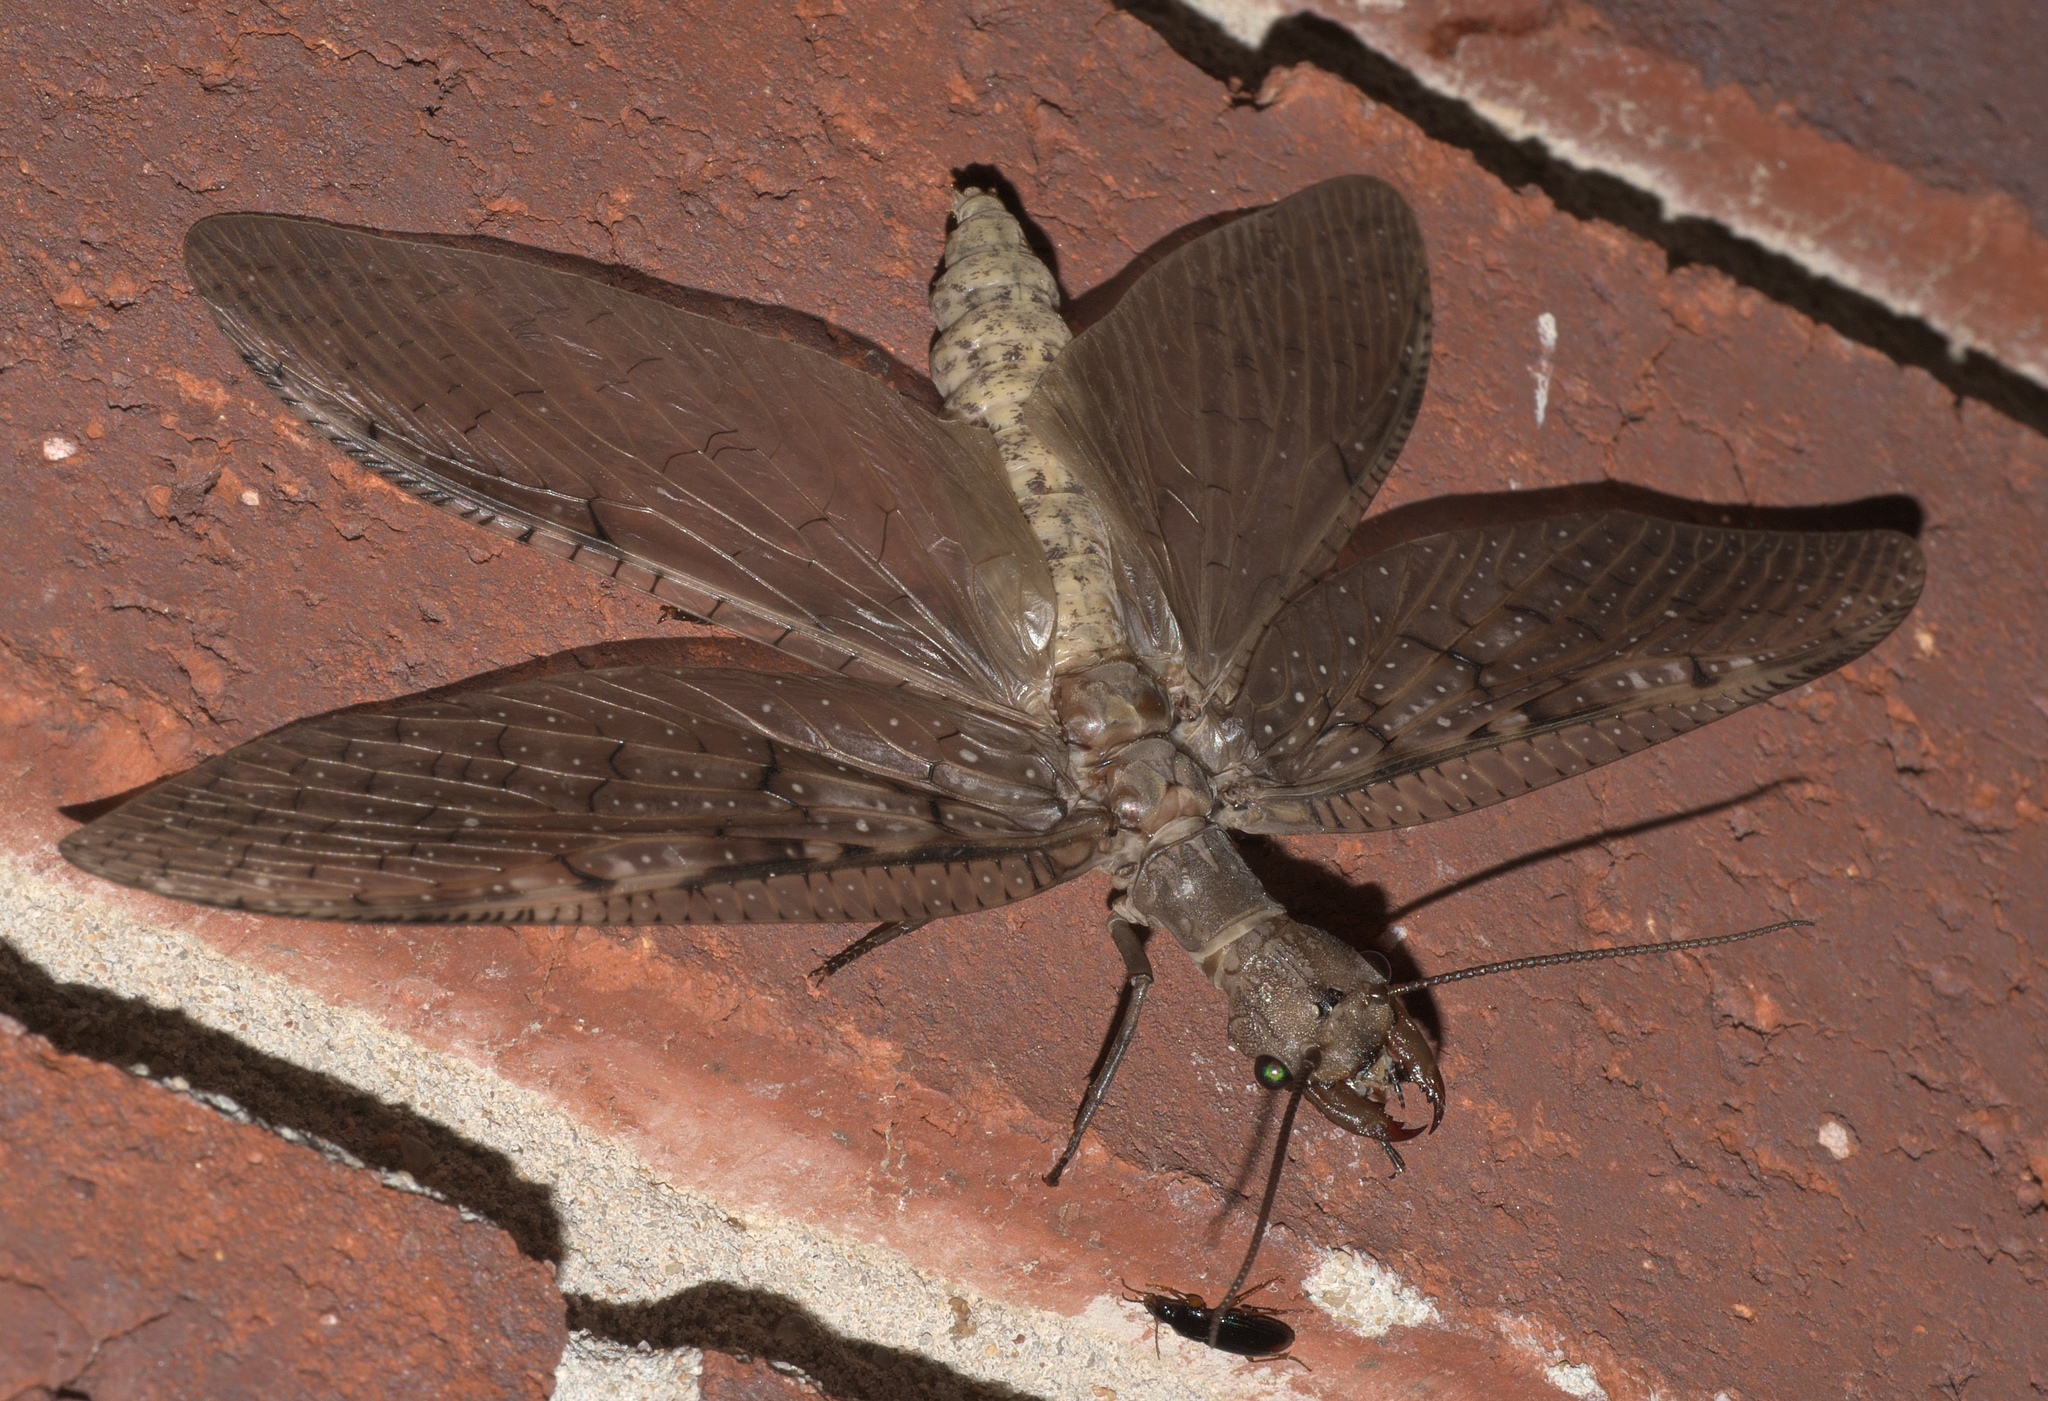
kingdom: Animalia
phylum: Arthropoda
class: Insecta
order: Megaloptera
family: Corydalidae
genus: Corydalus
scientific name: Corydalus cornutus
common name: Dobsonfly
